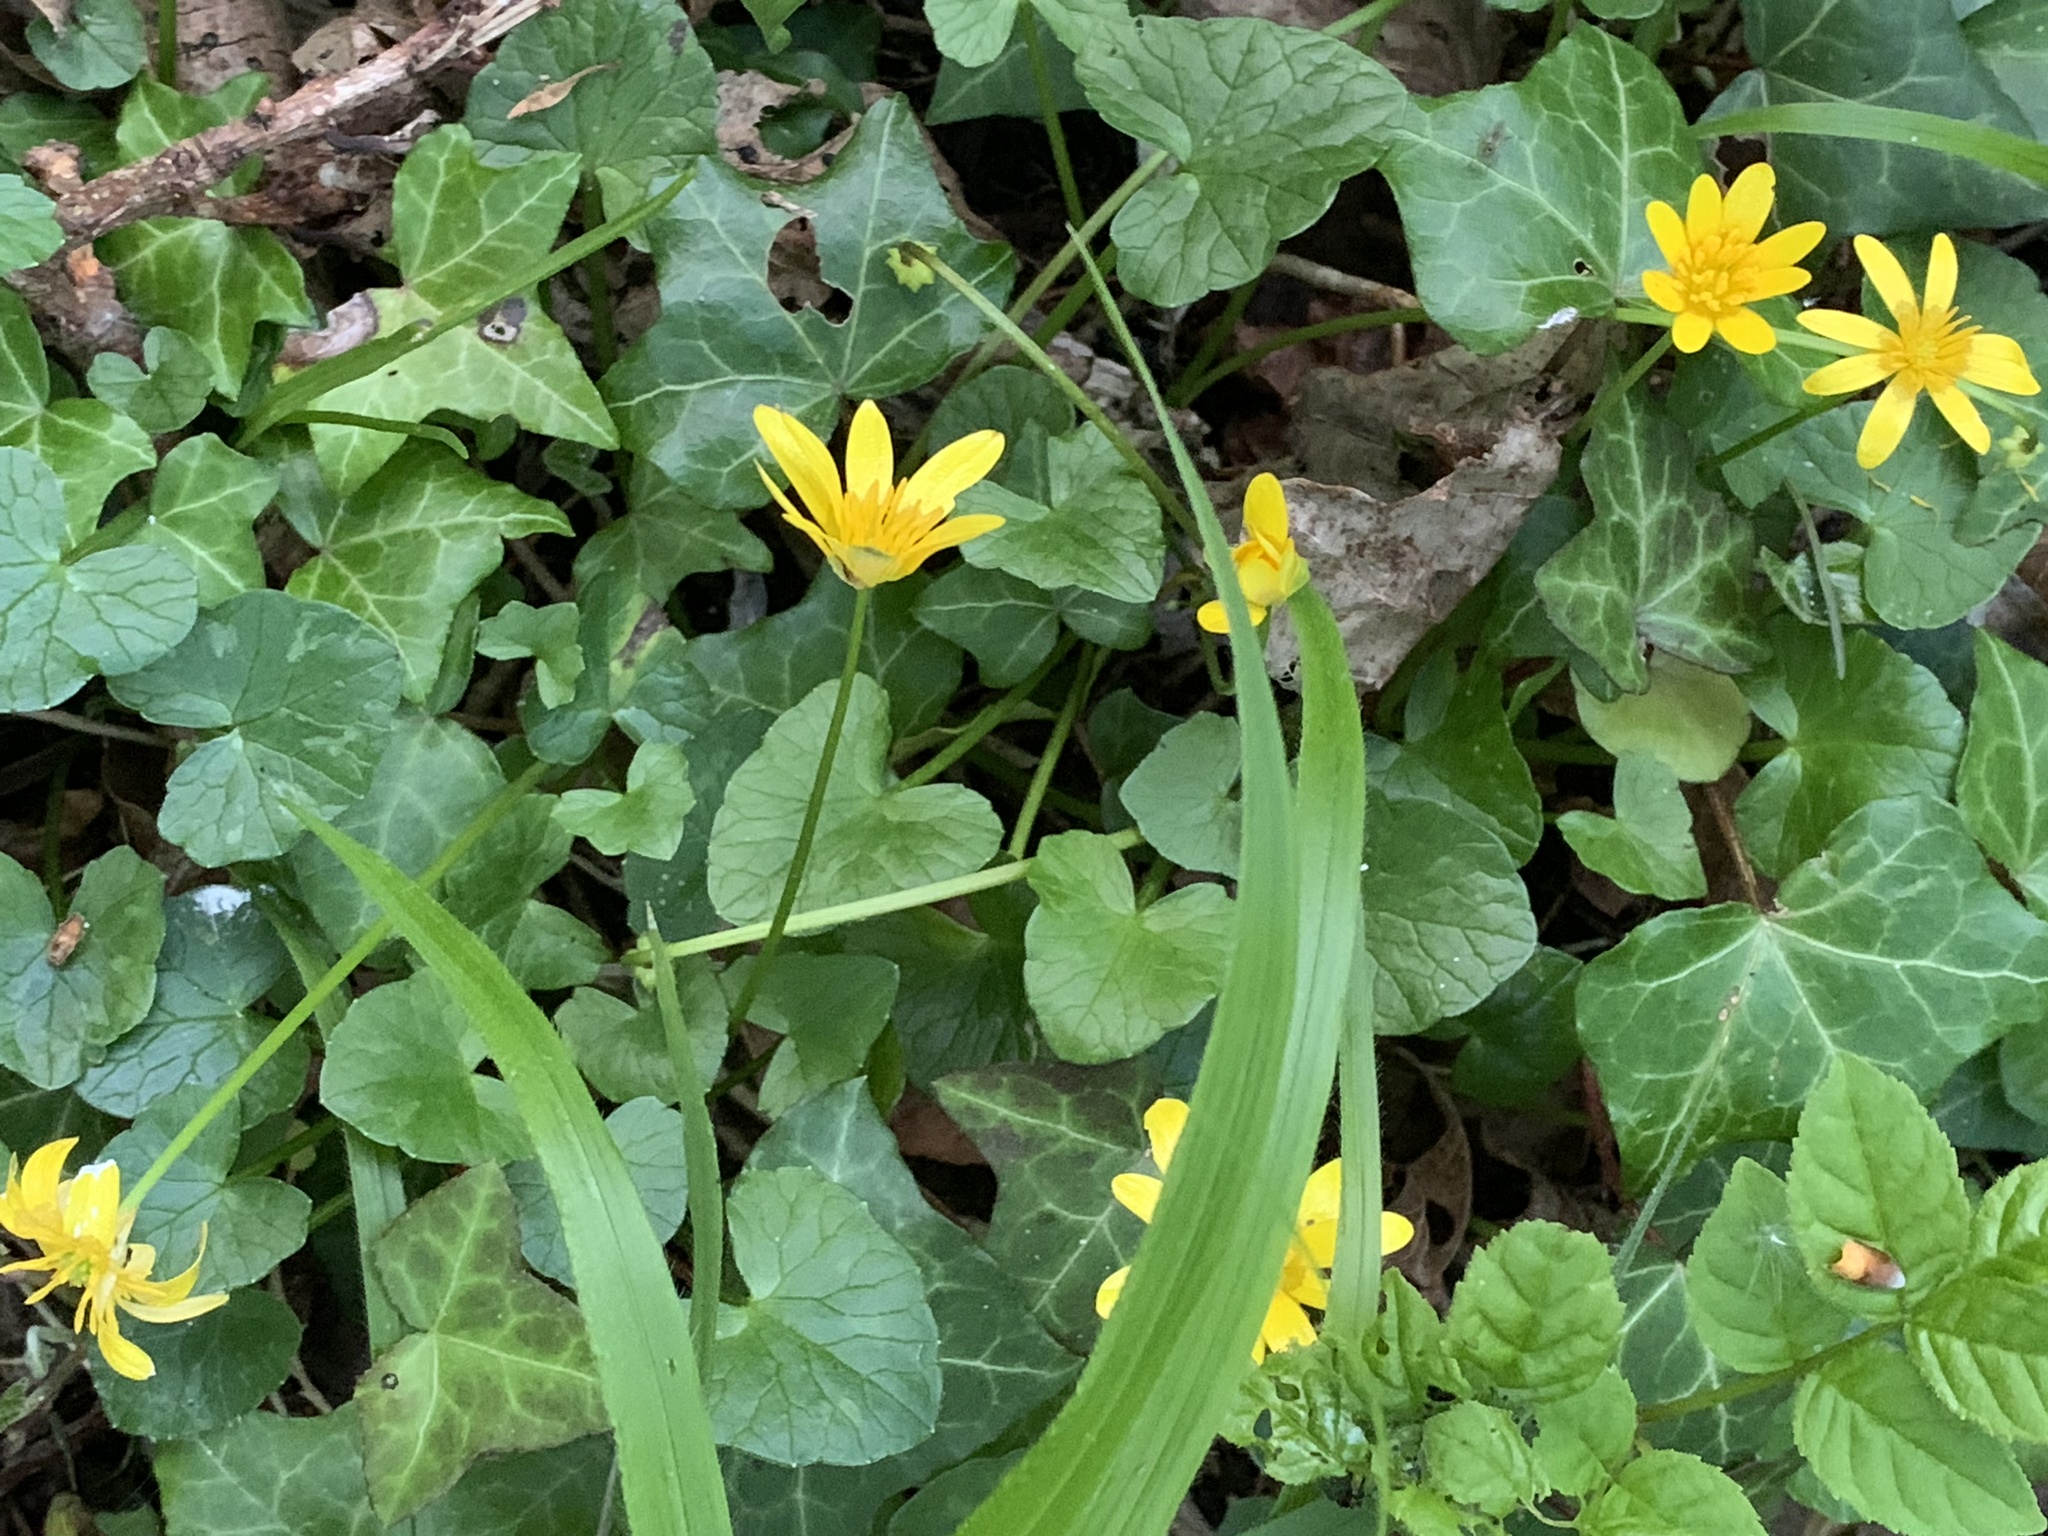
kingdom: Plantae
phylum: Tracheophyta
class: Magnoliopsida
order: Ranunculales
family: Ranunculaceae
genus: Ficaria
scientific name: Ficaria verna
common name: Lesser celandine
